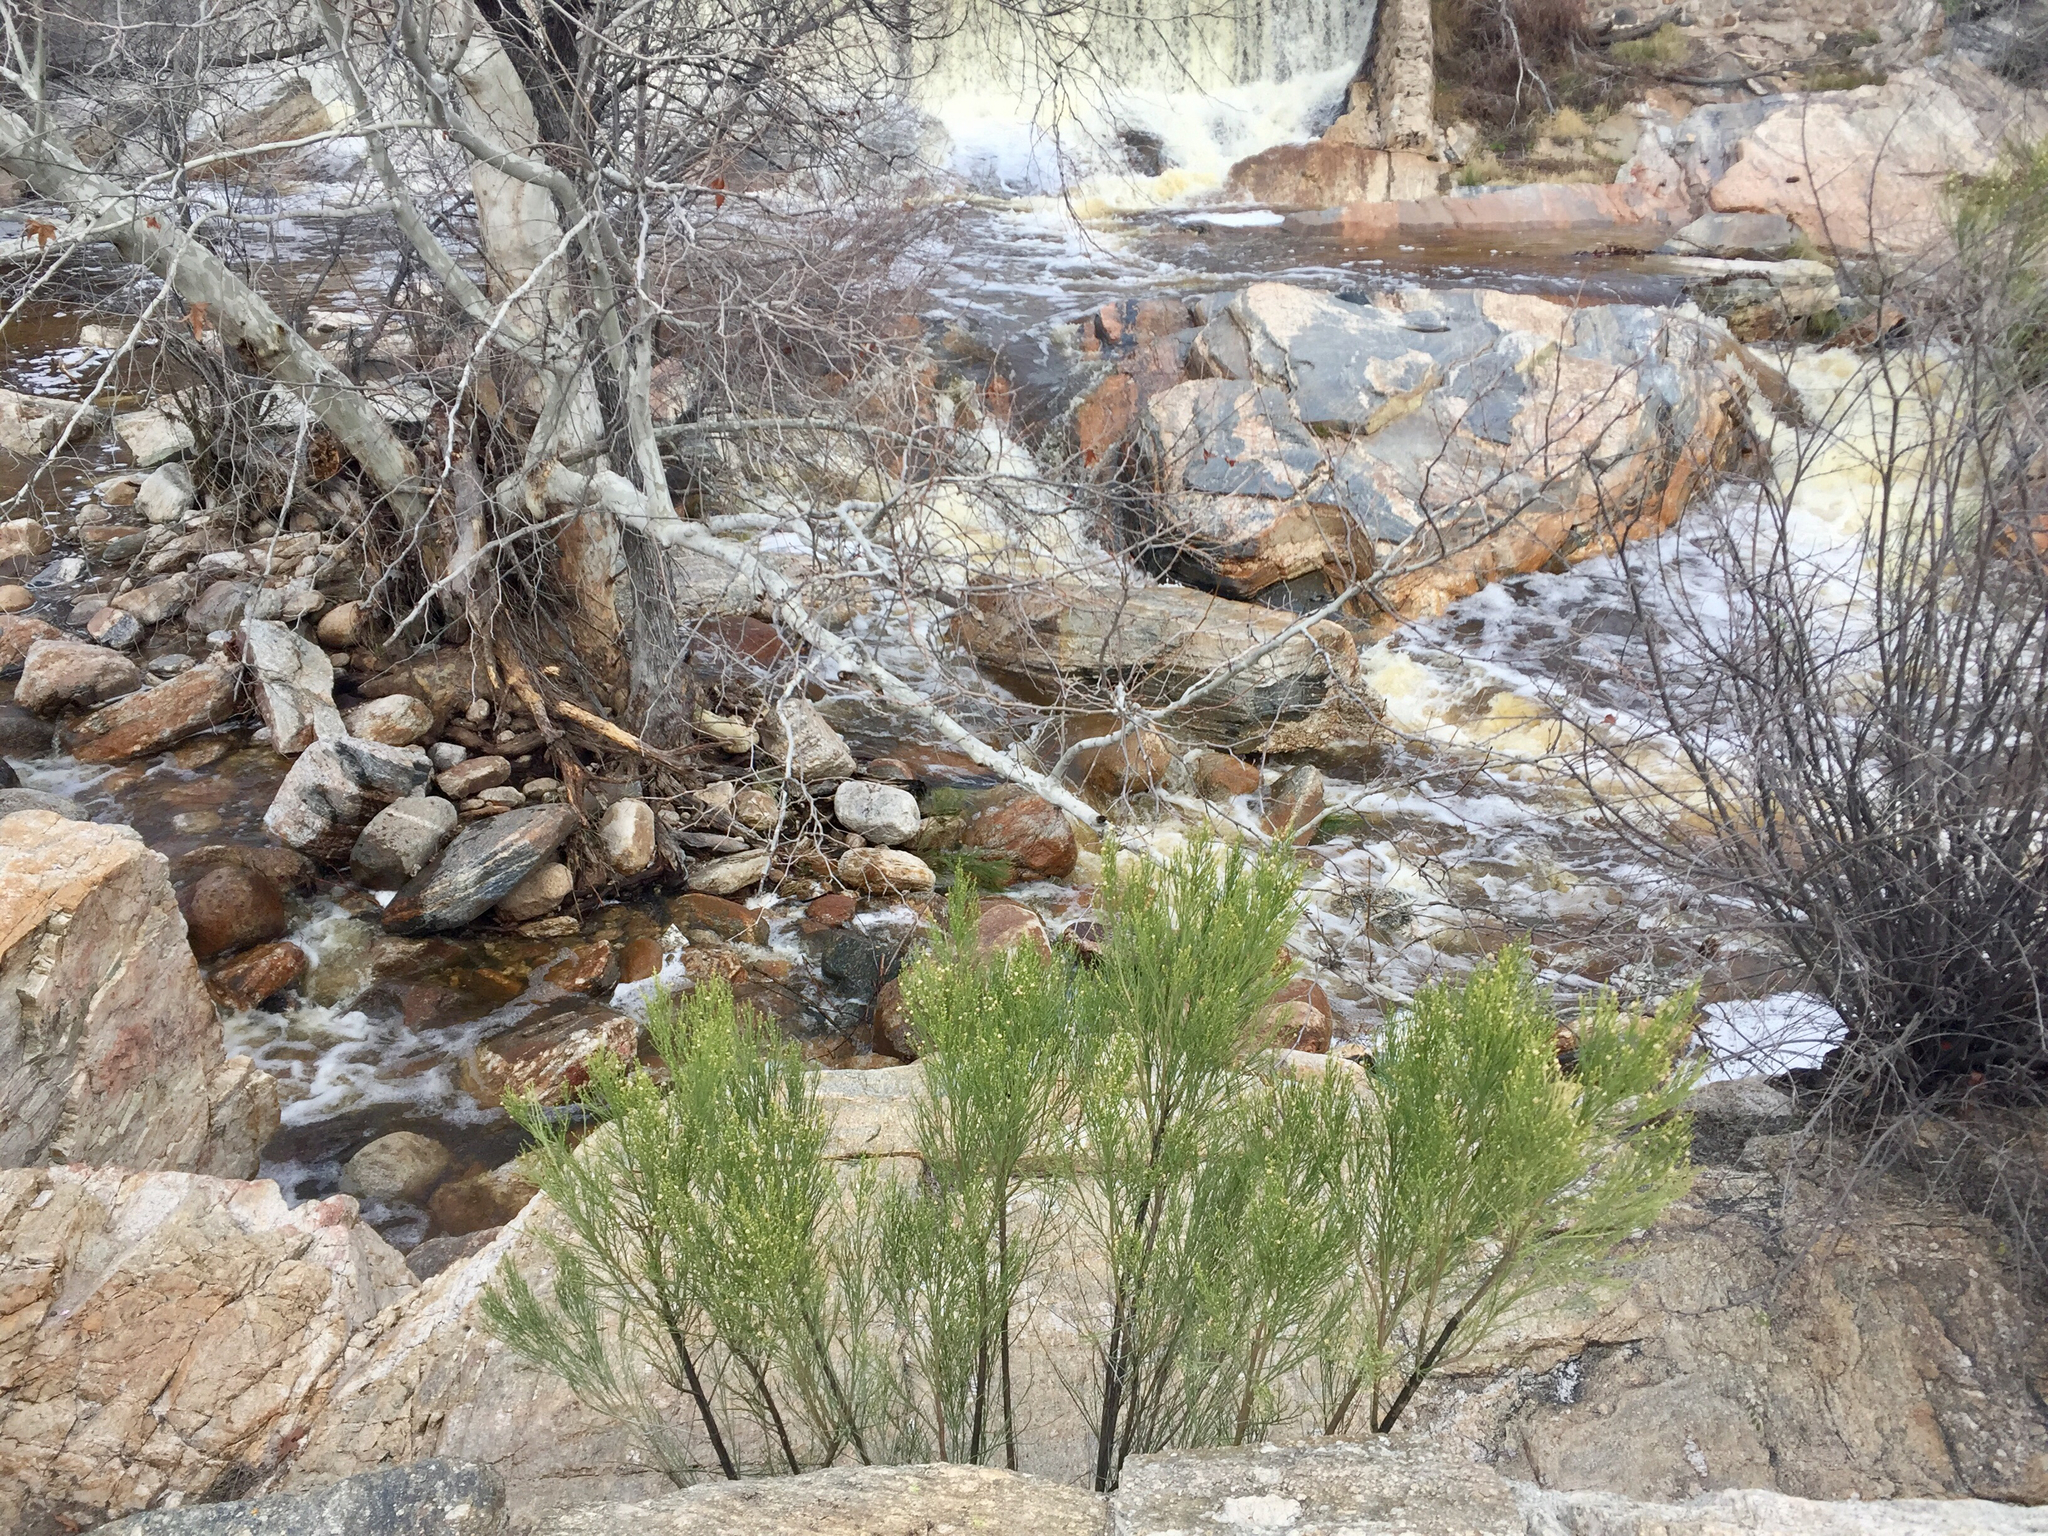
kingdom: Plantae
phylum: Tracheophyta
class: Magnoliopsida
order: Asterales
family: Asteraceae
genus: Baccharis
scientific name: Baccharis sarothroides
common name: Desert-broom
